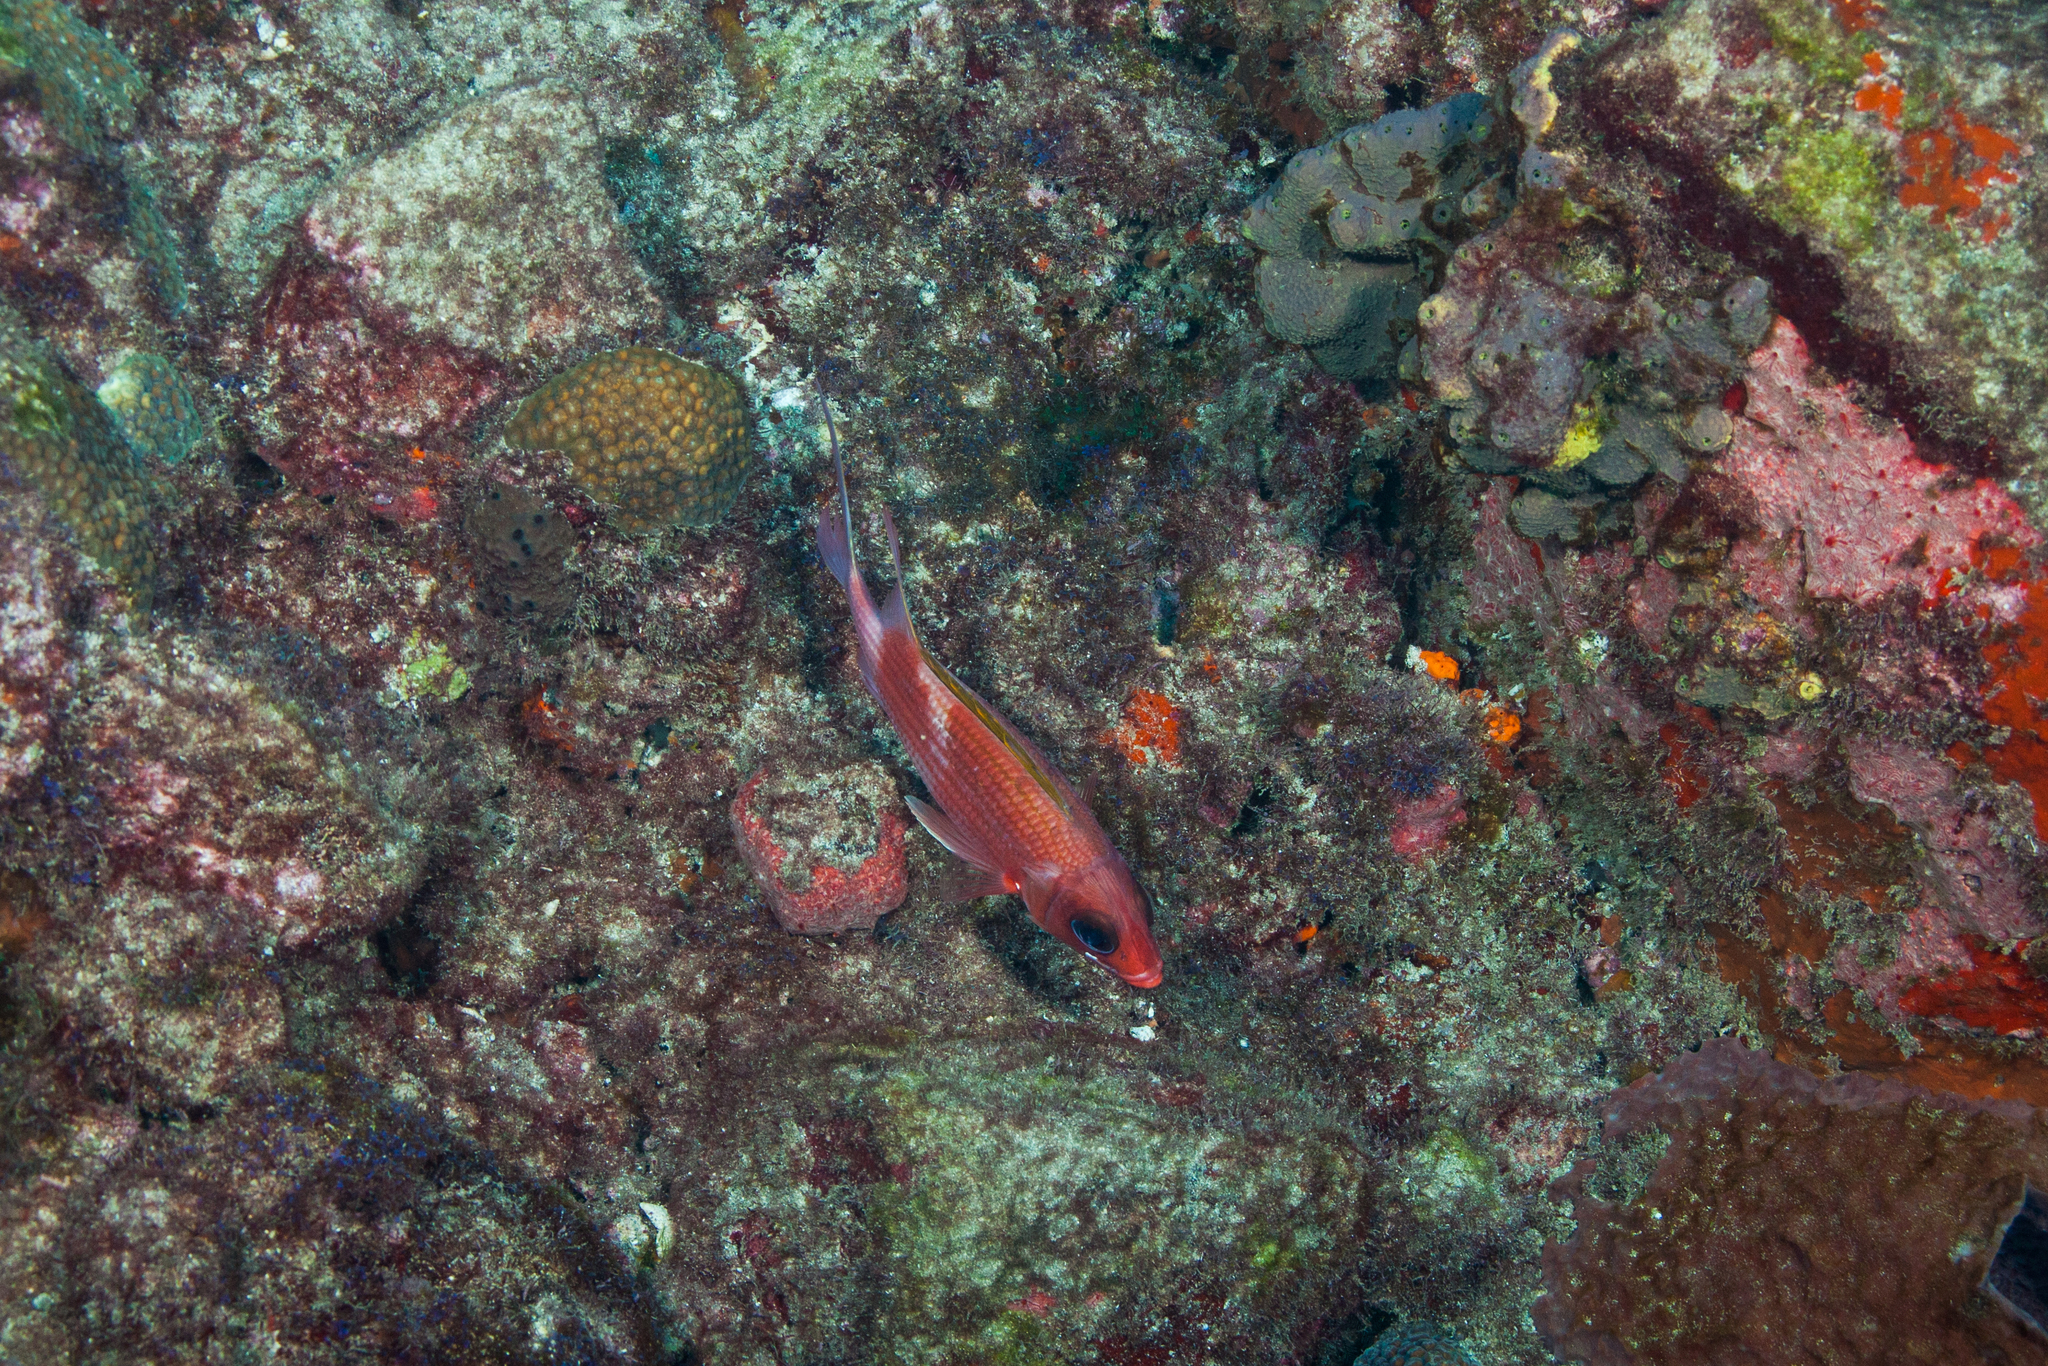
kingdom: Animalia
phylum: Chordata
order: Beryciformes
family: Holocentridae
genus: Holocentrus
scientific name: Holocentrus adscensionis
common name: Squirrelfish
